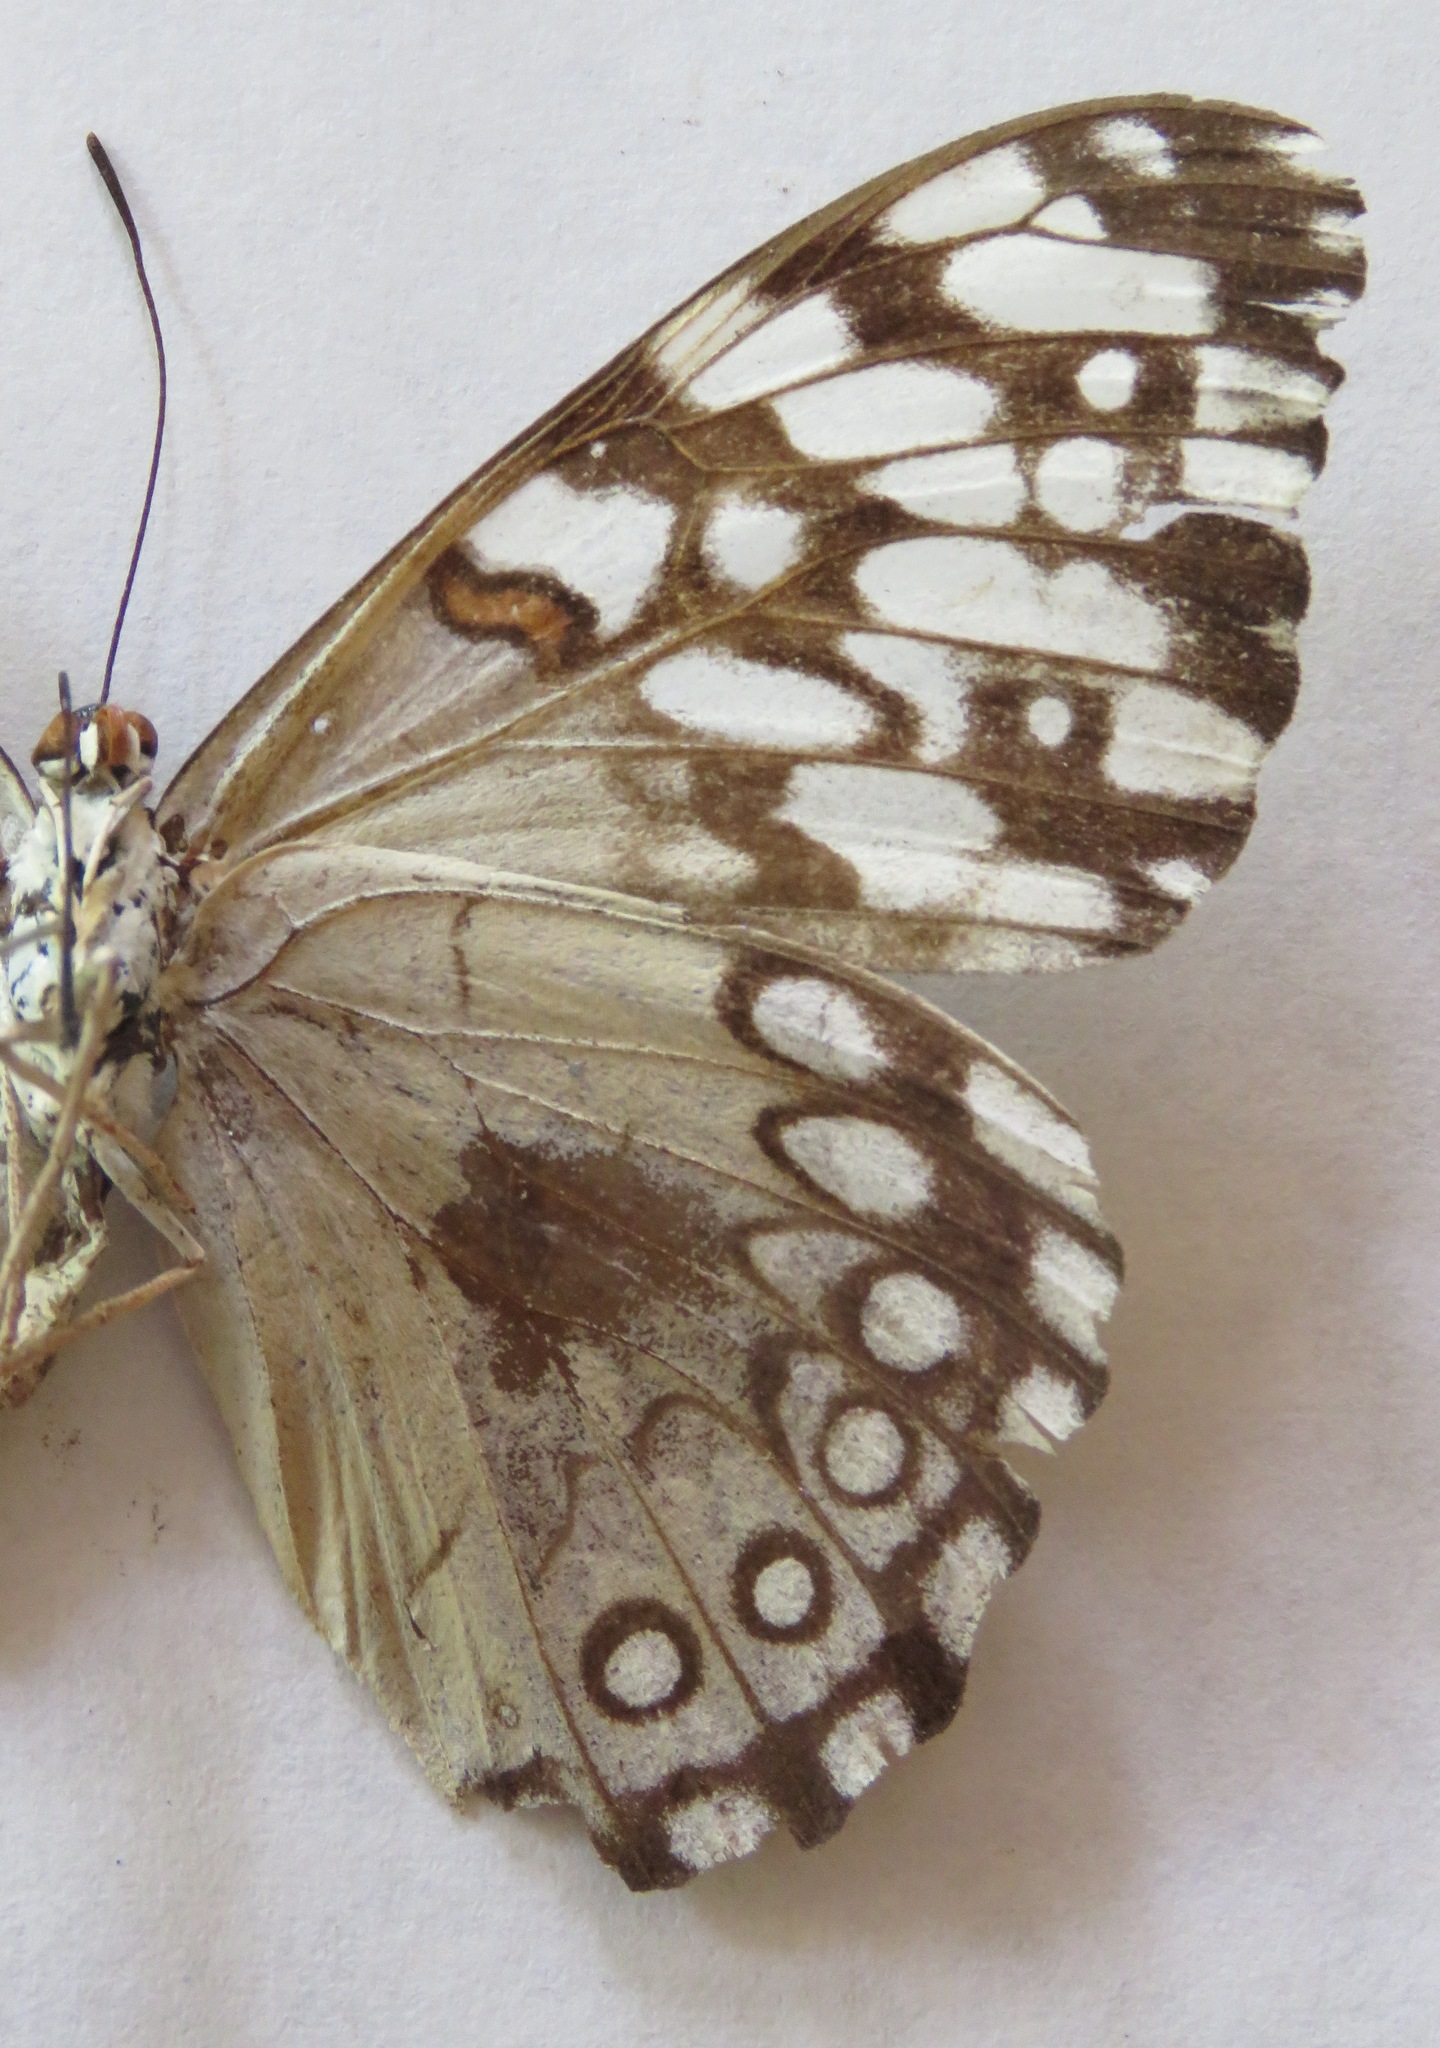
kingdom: Animalia
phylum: Arthropoda
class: Insecta
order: Lepidoptera
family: Nymphalidae
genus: Hamadryas
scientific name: Hamadryas guatemalena
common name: Guatemalan cracker
